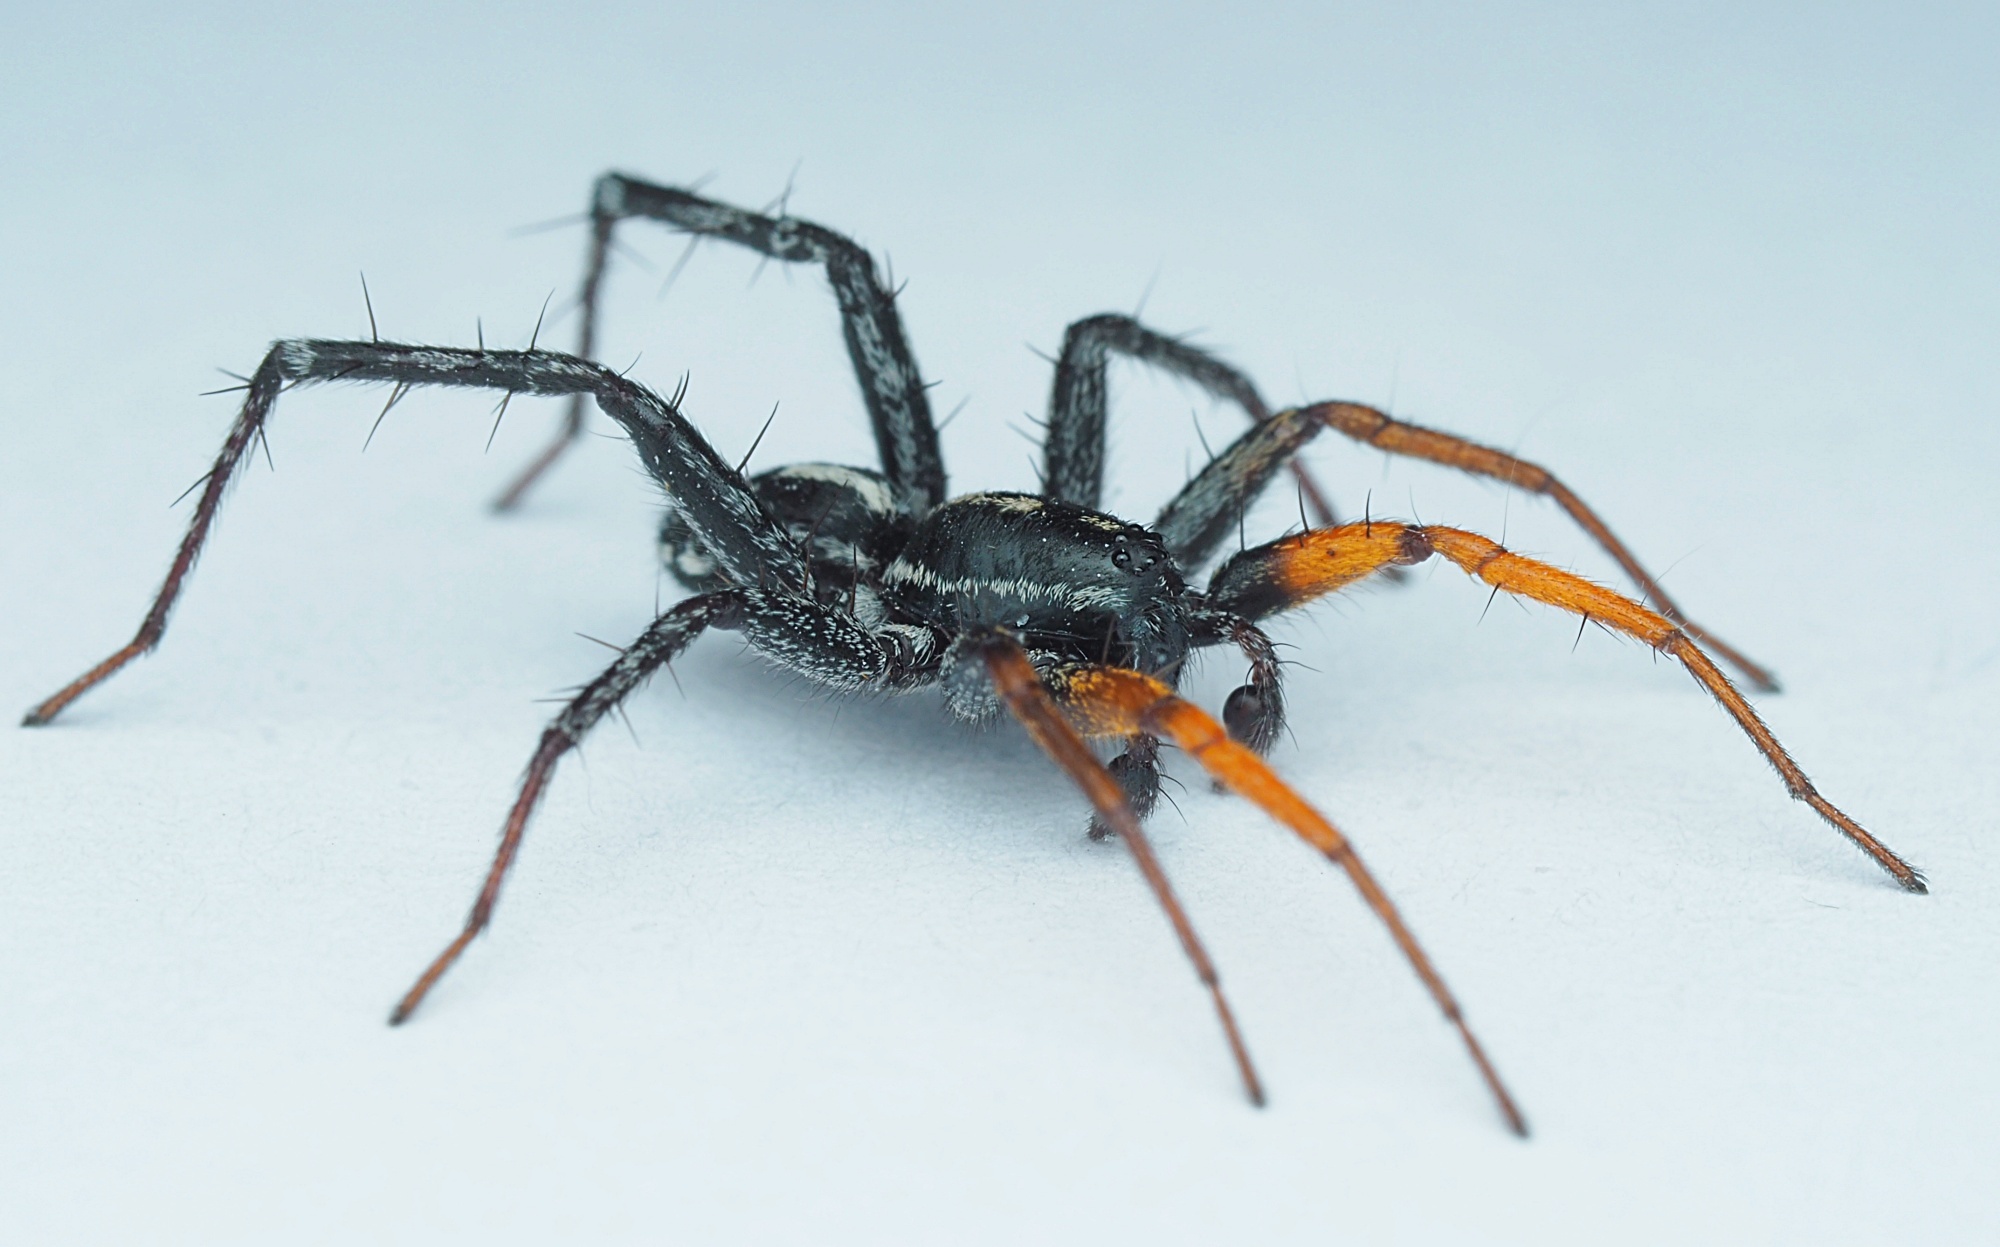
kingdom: Animalia
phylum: Arthropoda
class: Arachnida
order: Araneae
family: Corinnidae
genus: Nyssus
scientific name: Nyssus coloripes
